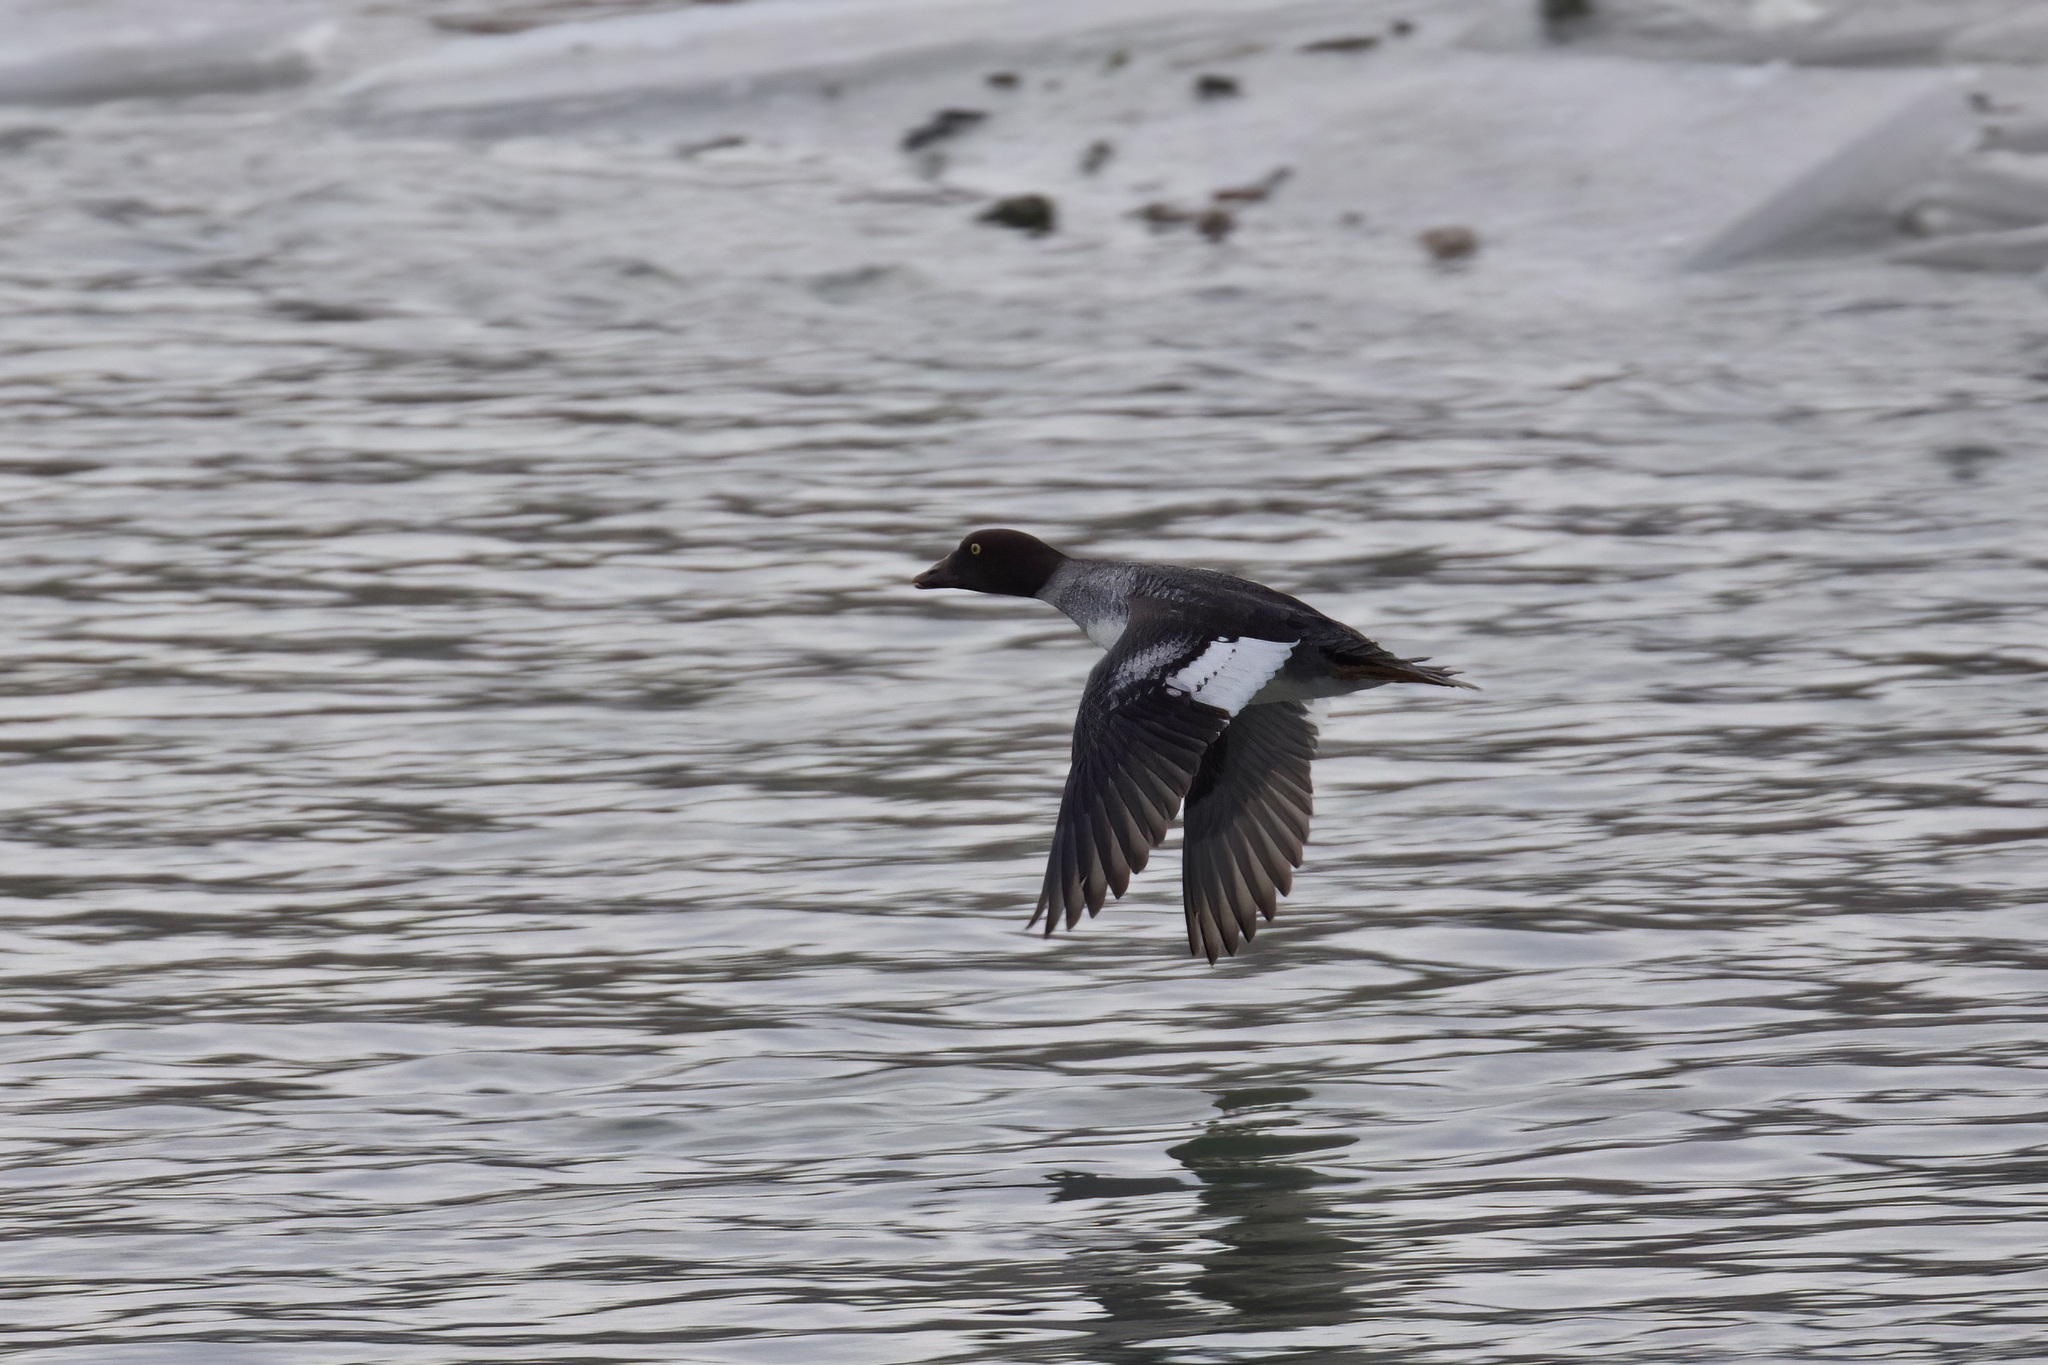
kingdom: Animalia
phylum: Chordata
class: Aves
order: Anseriformes
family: Anatidae
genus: Bucephala
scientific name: Bucephala clangula
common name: Common goldeneye
